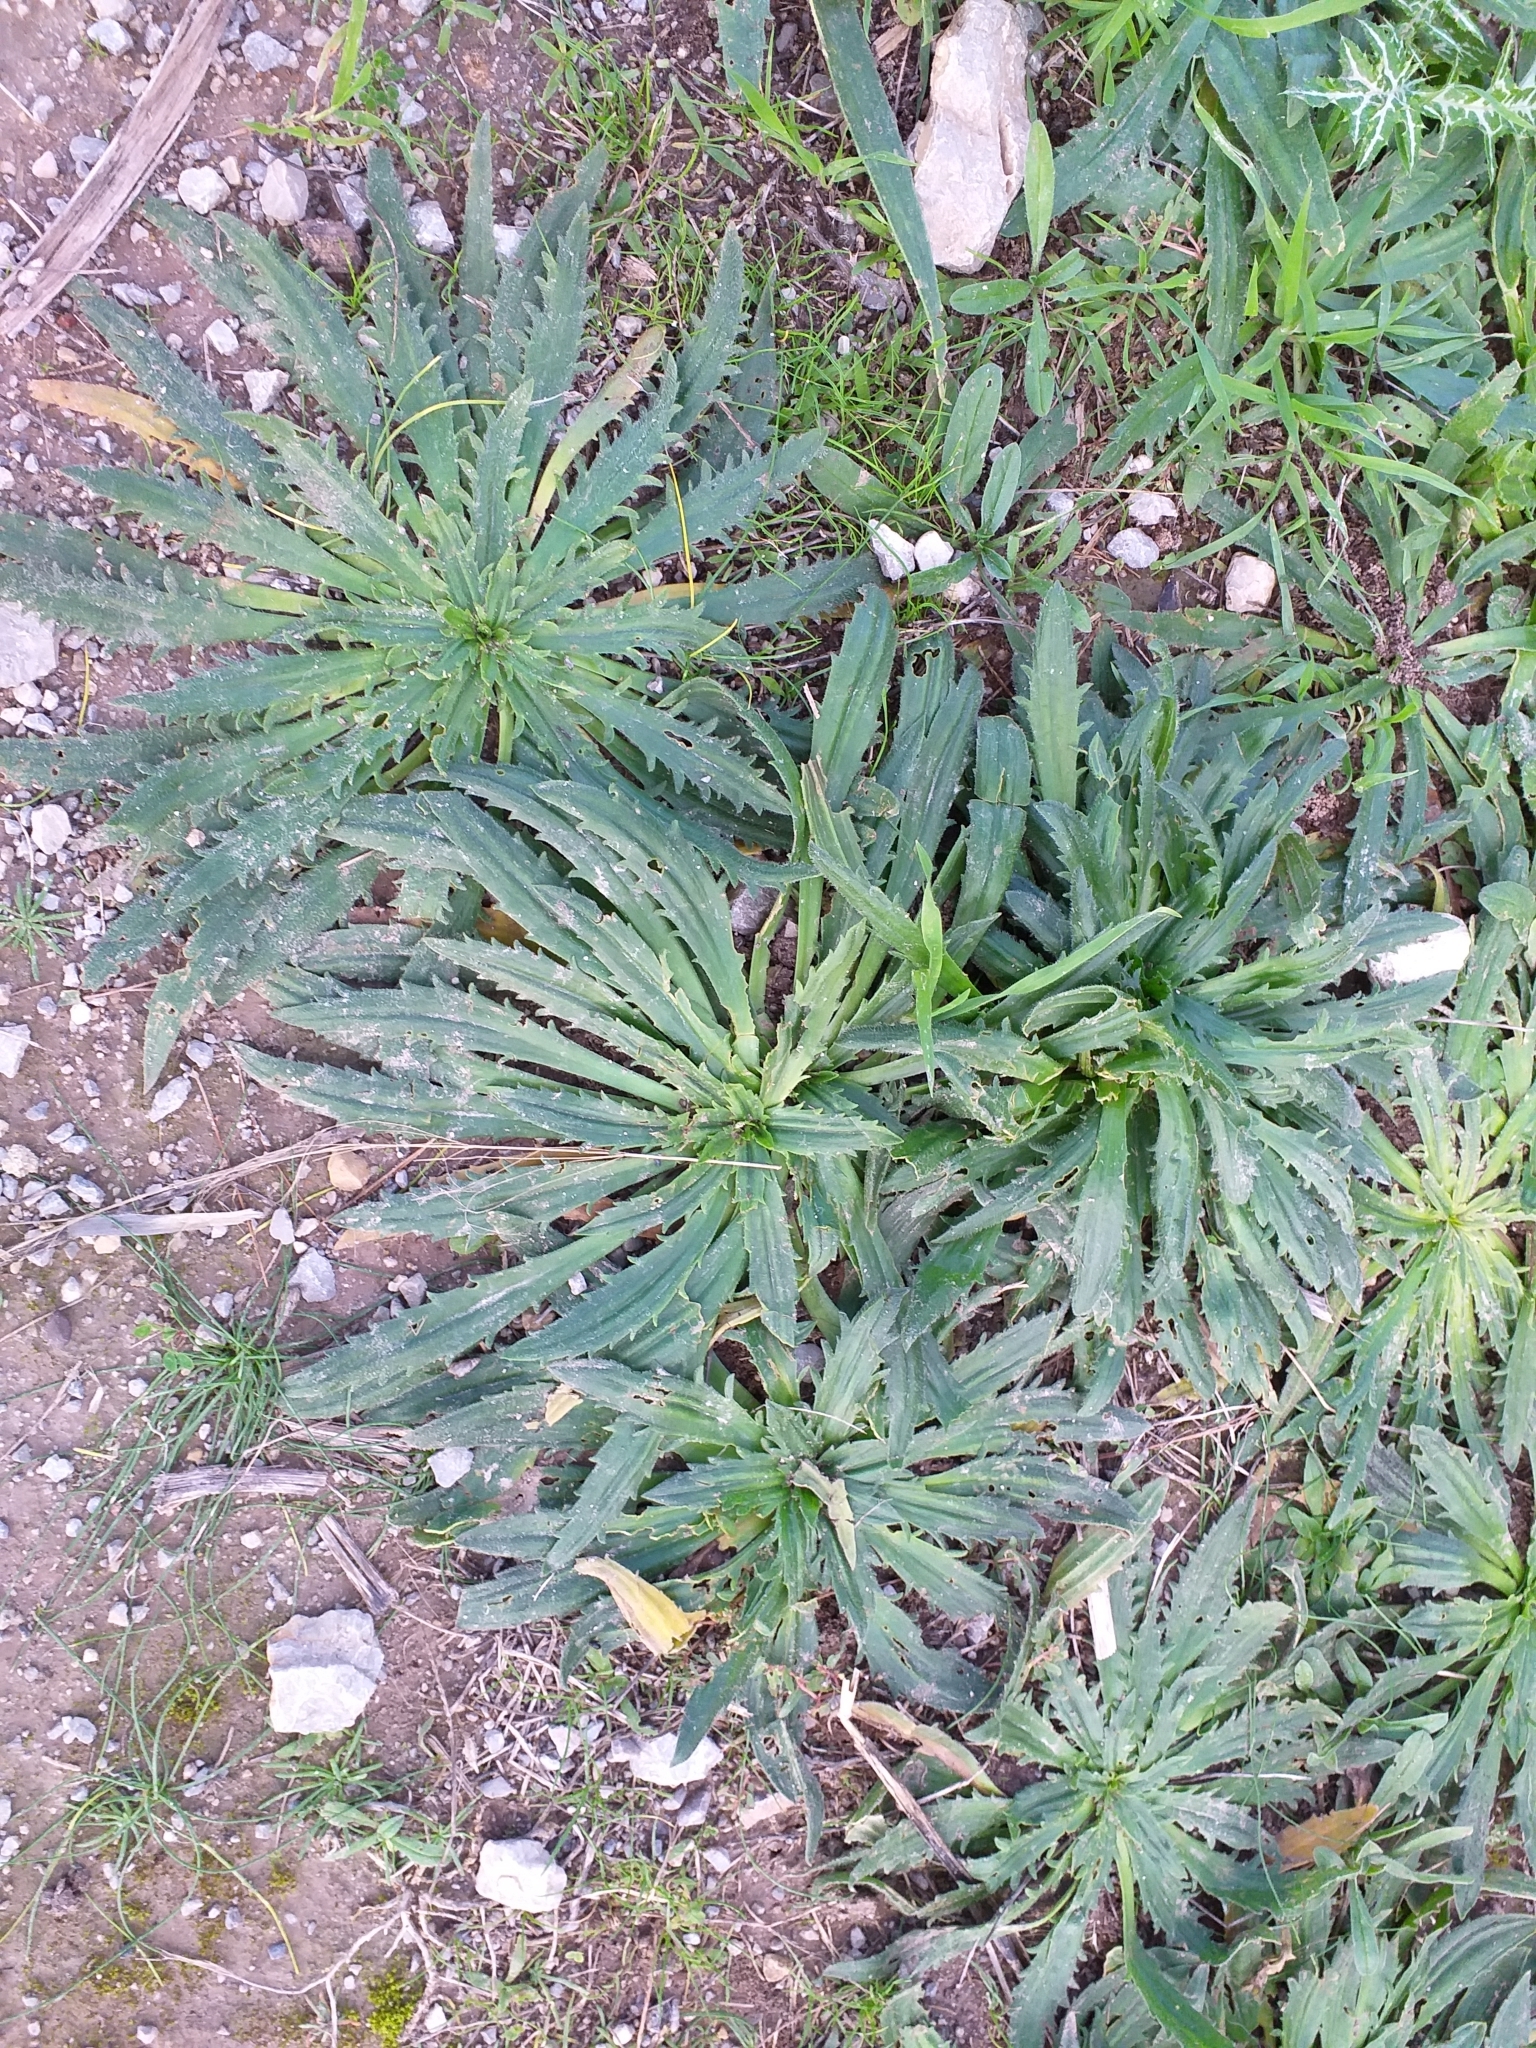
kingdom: Plantae
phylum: Tracheophyta
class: Magnoliopsida
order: Lamiales
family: Plantaginaceae
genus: Plantago
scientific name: Plantago serraria
